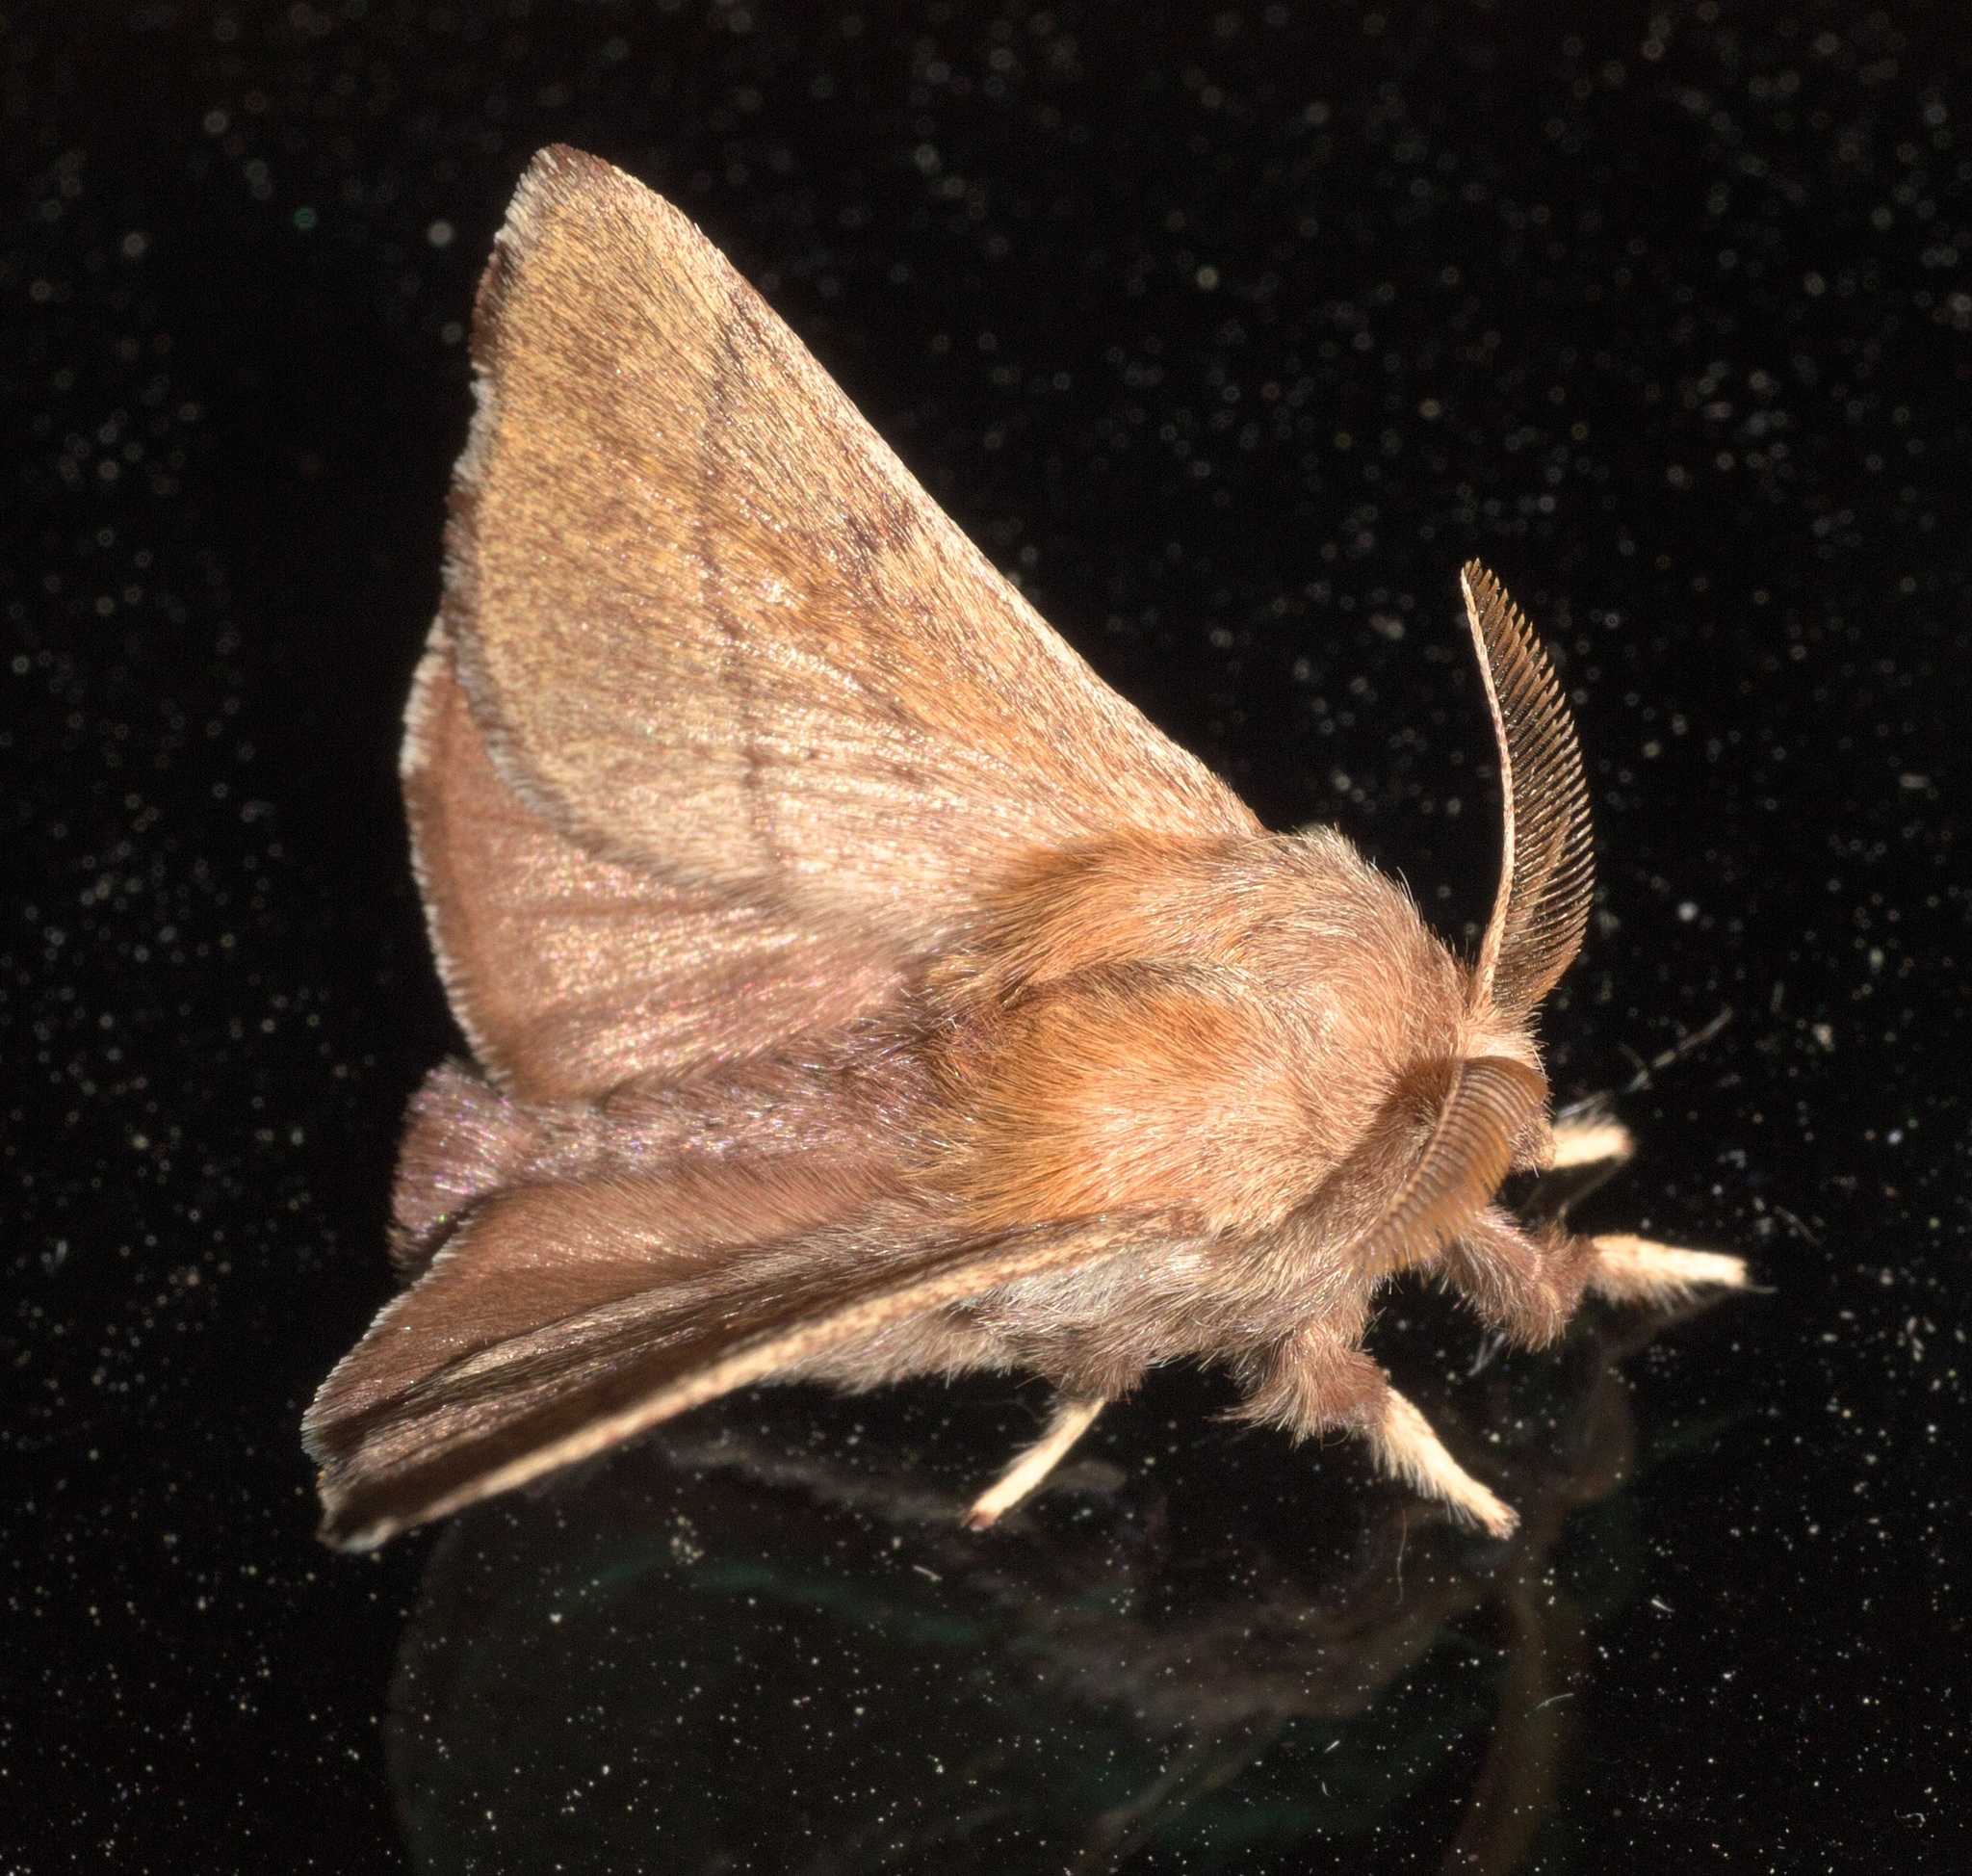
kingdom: Animalia
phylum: Arthropoda
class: Insecta
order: Lepidoptera
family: Lasiocampidae
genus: Malacosoma
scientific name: Malacosoma disstria
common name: Forest tent caterpillar
